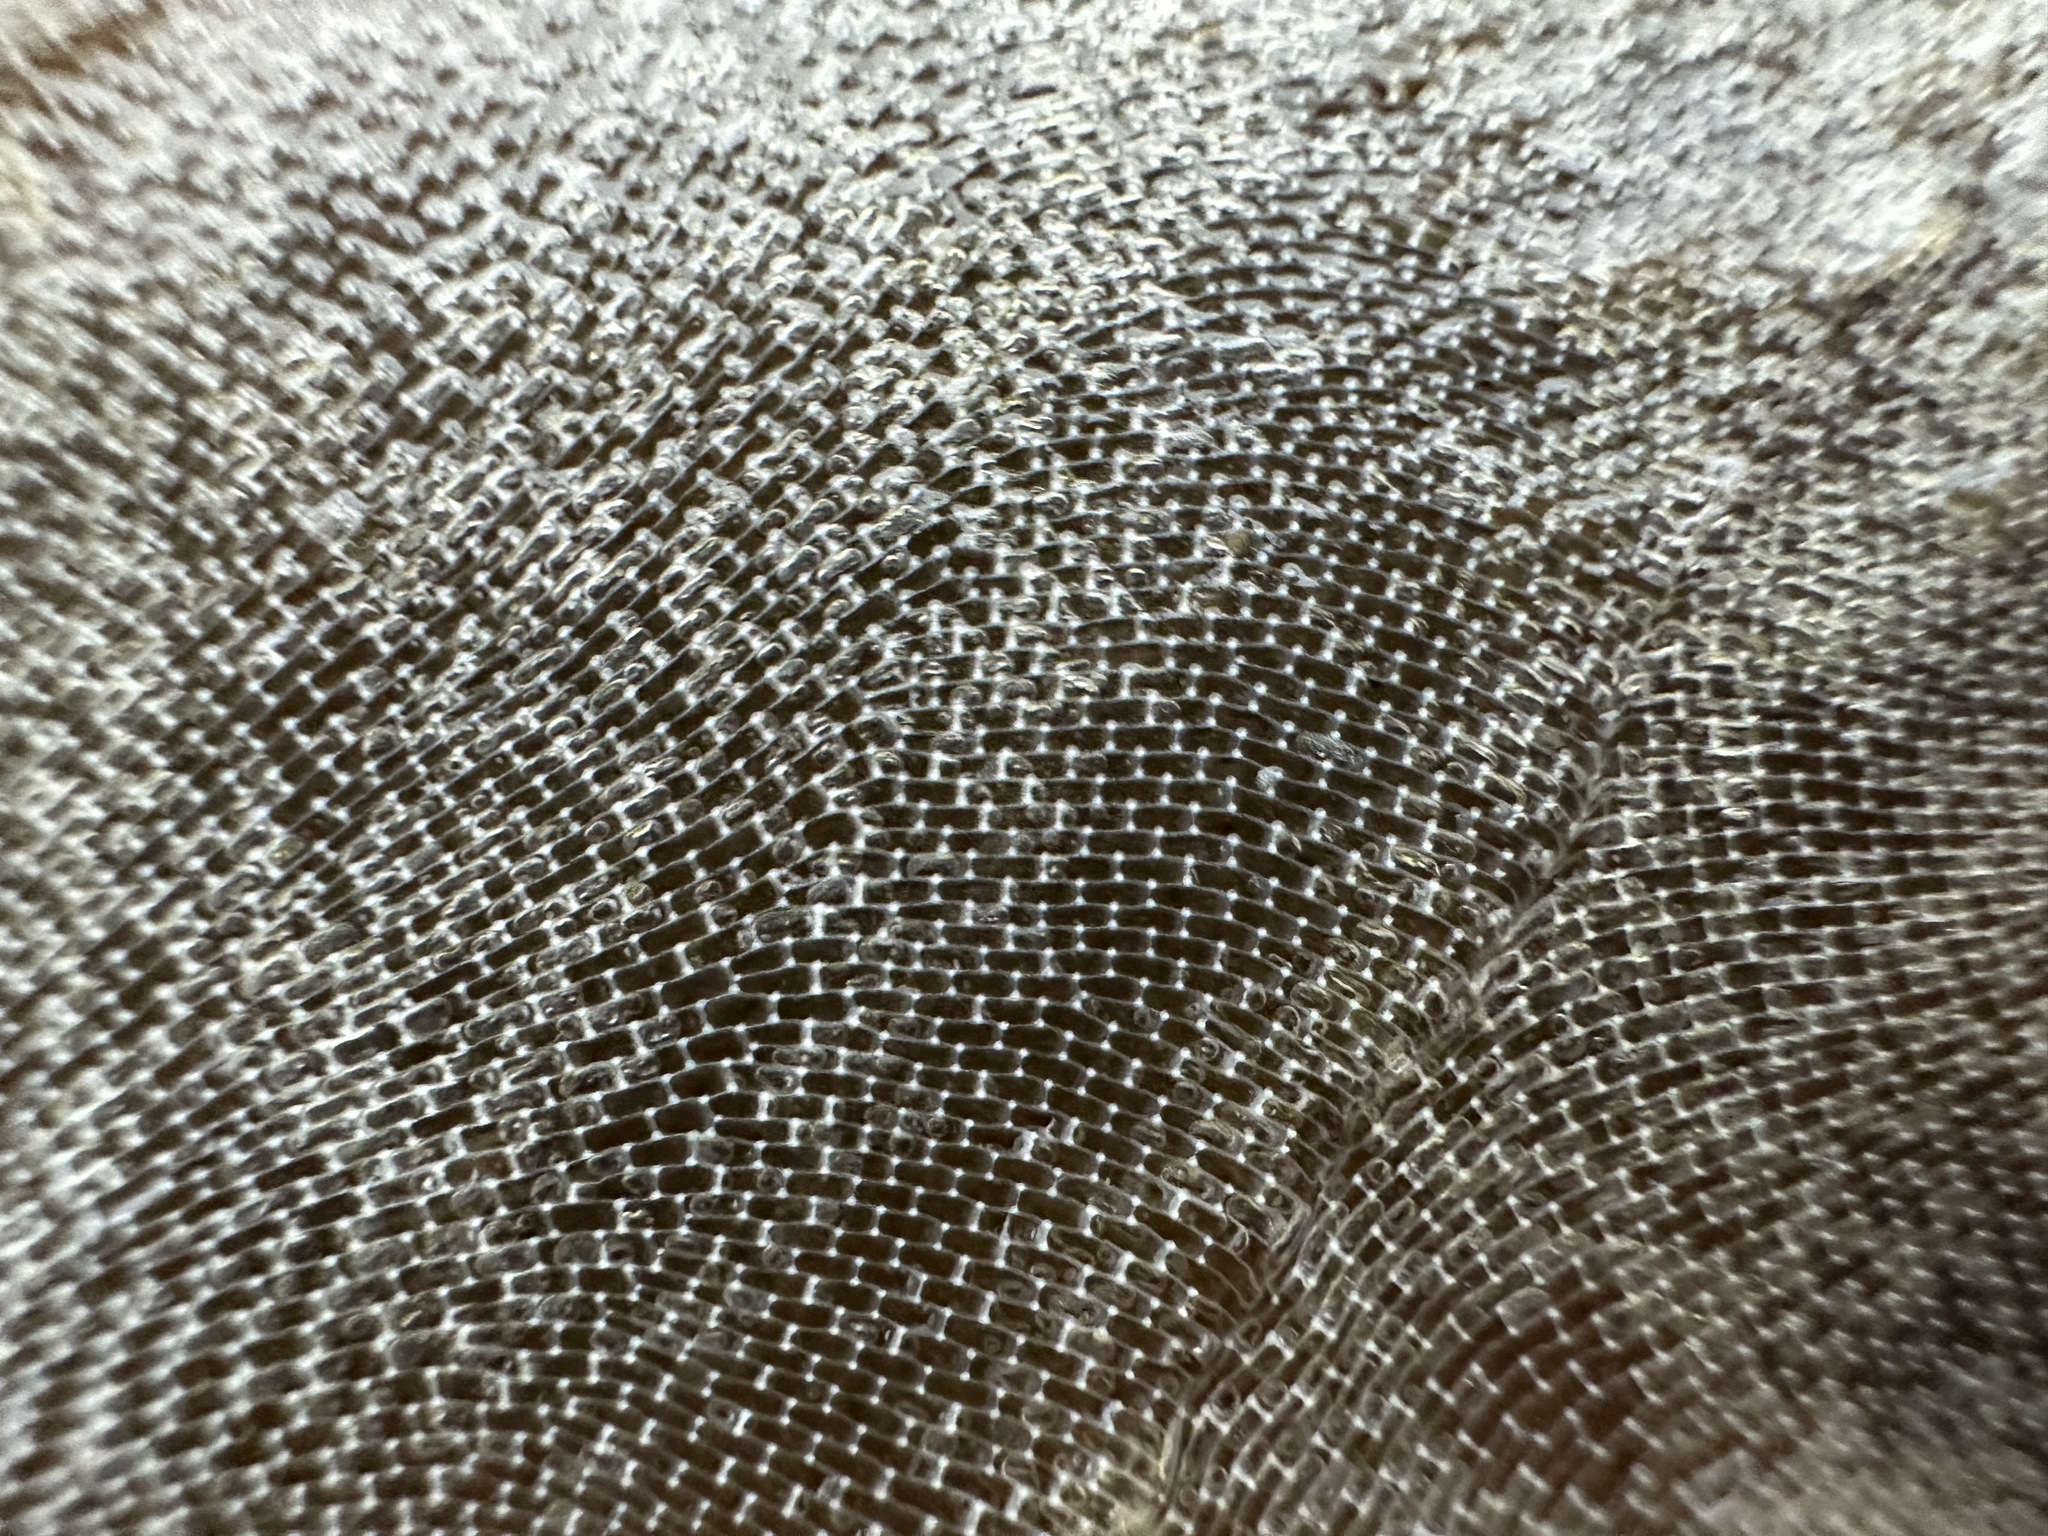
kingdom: Animalia
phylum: Bryozoa
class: Gymnolaemata
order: Cheilostomatida
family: Membraniporidae
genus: Membranipora
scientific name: Membranipora membranacea
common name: Sea mat
